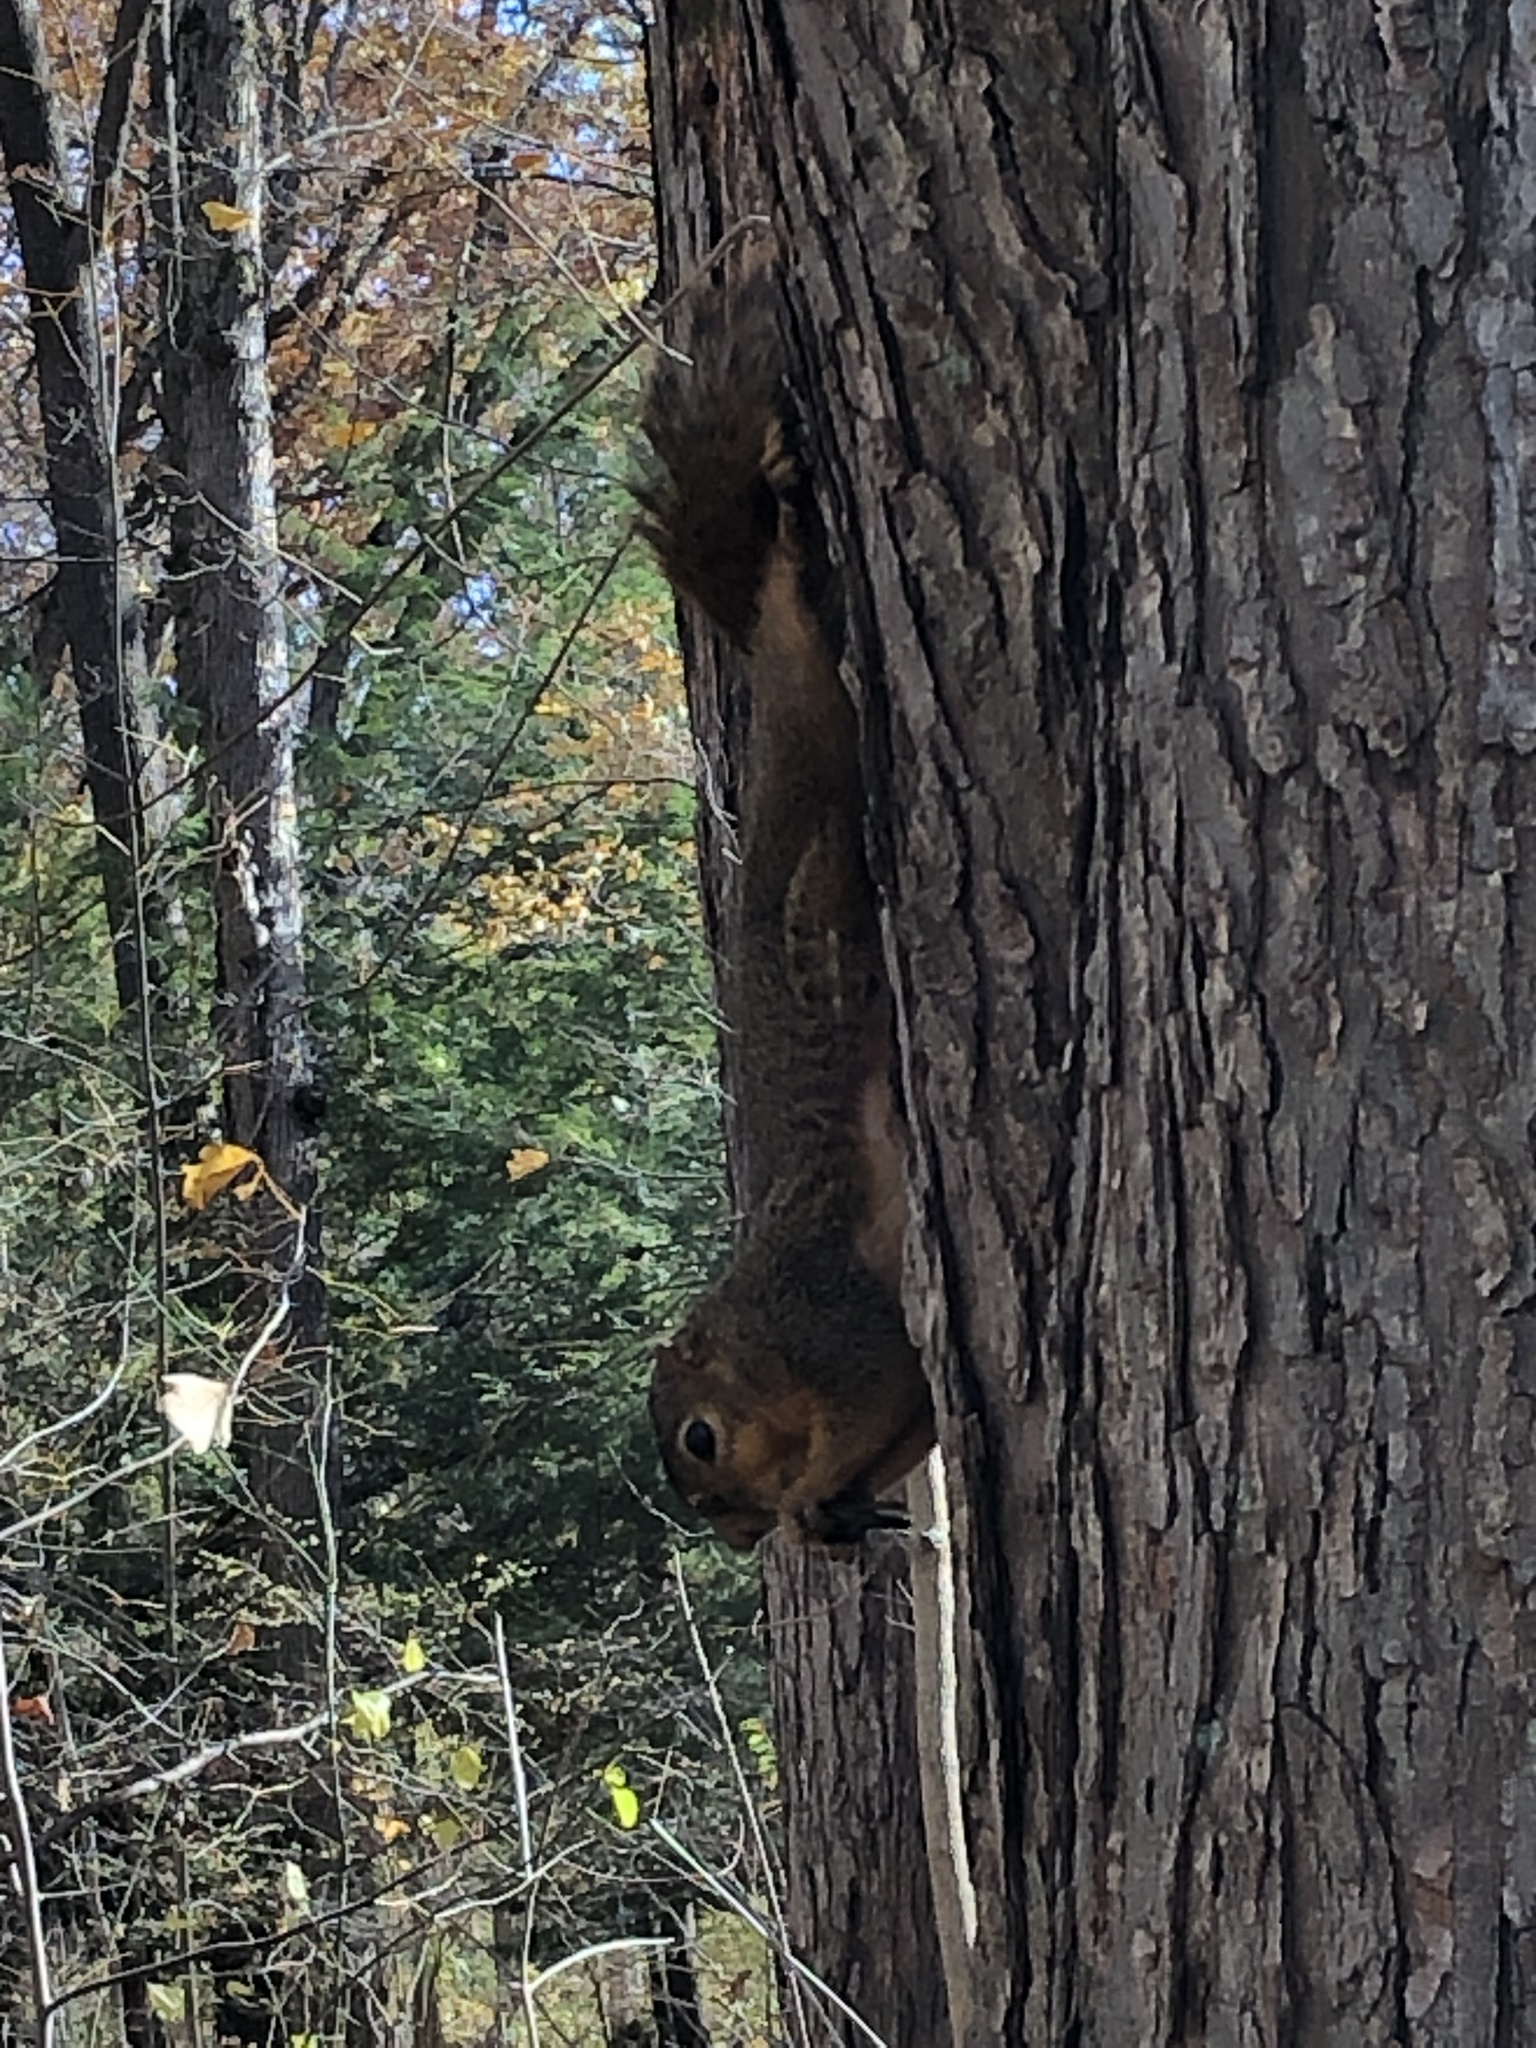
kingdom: Animalia
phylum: Chordata
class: Mammalia
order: Rodentia
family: Sciuridae
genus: Sciurus
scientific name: Sciurus niger
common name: Fox squirrel
